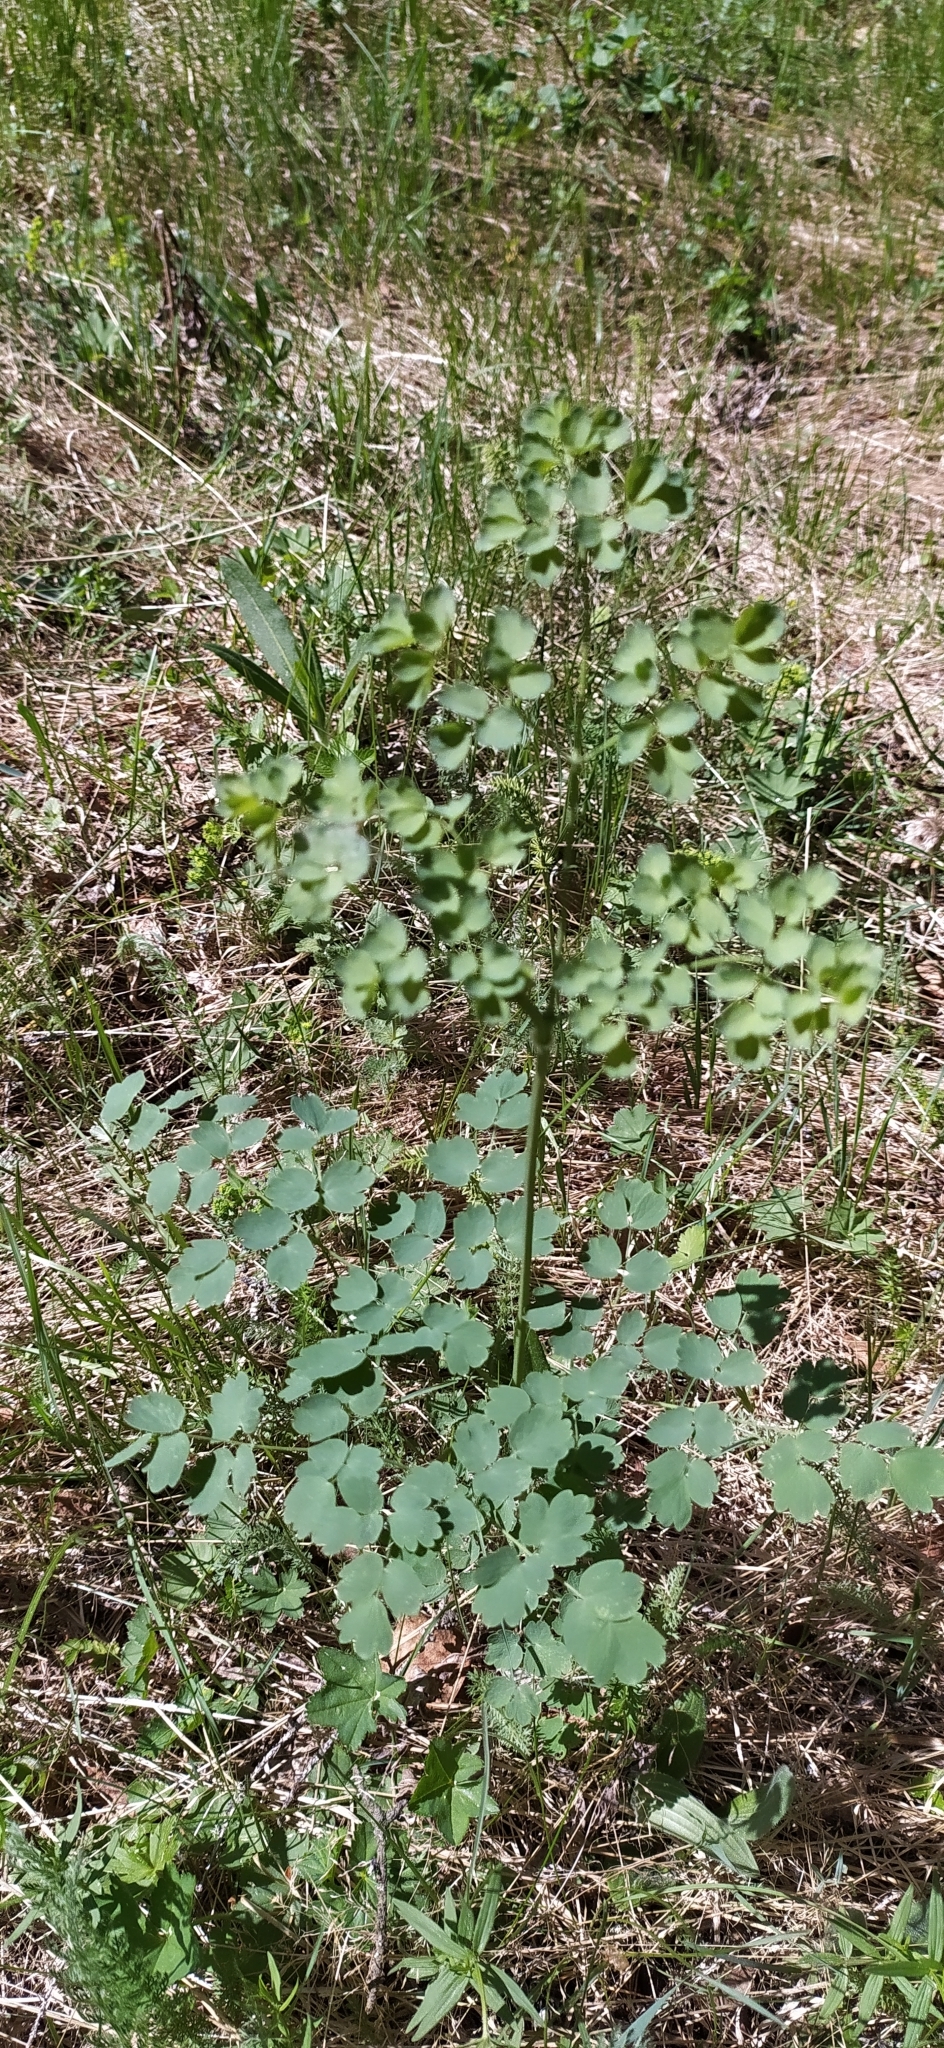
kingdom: Plantae
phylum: Tracheophyta
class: Magnoliopsida
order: Ranunculales
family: Ranunculaceae
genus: Thalictrum
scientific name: Thalictrum minus
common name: Lesser meadow-rue
